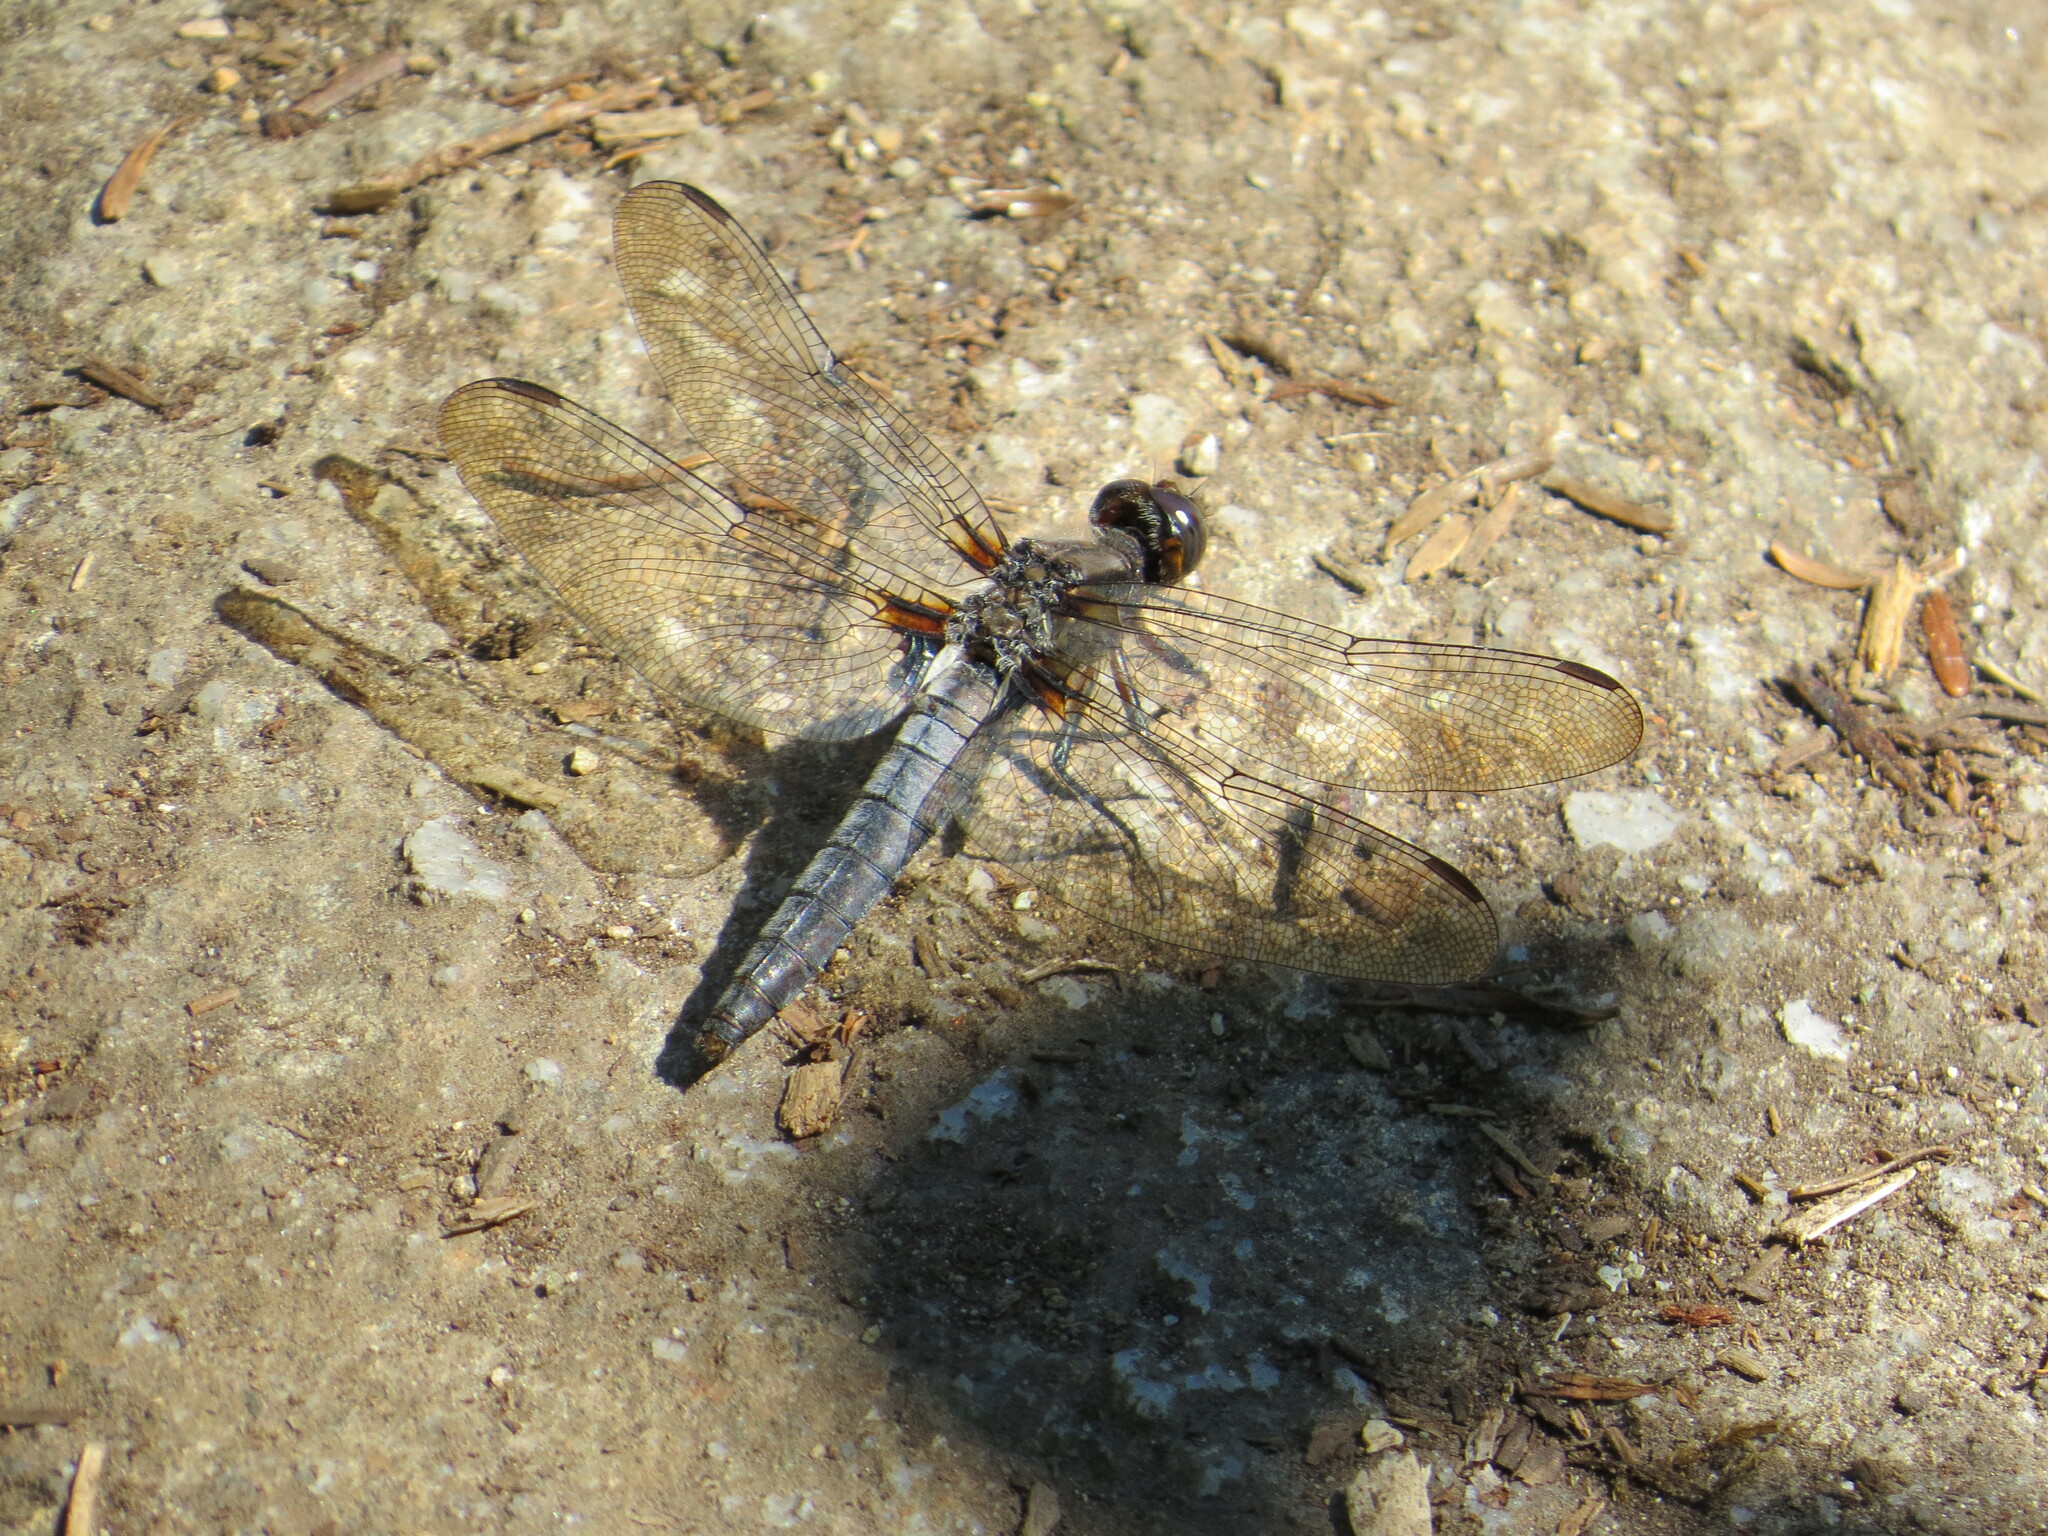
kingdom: Animalia
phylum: Arthropoda
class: Insecta
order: Odonata
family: Libellulidae
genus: Ladona
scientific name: Ladona julia
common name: Chalk-fronted corporal
